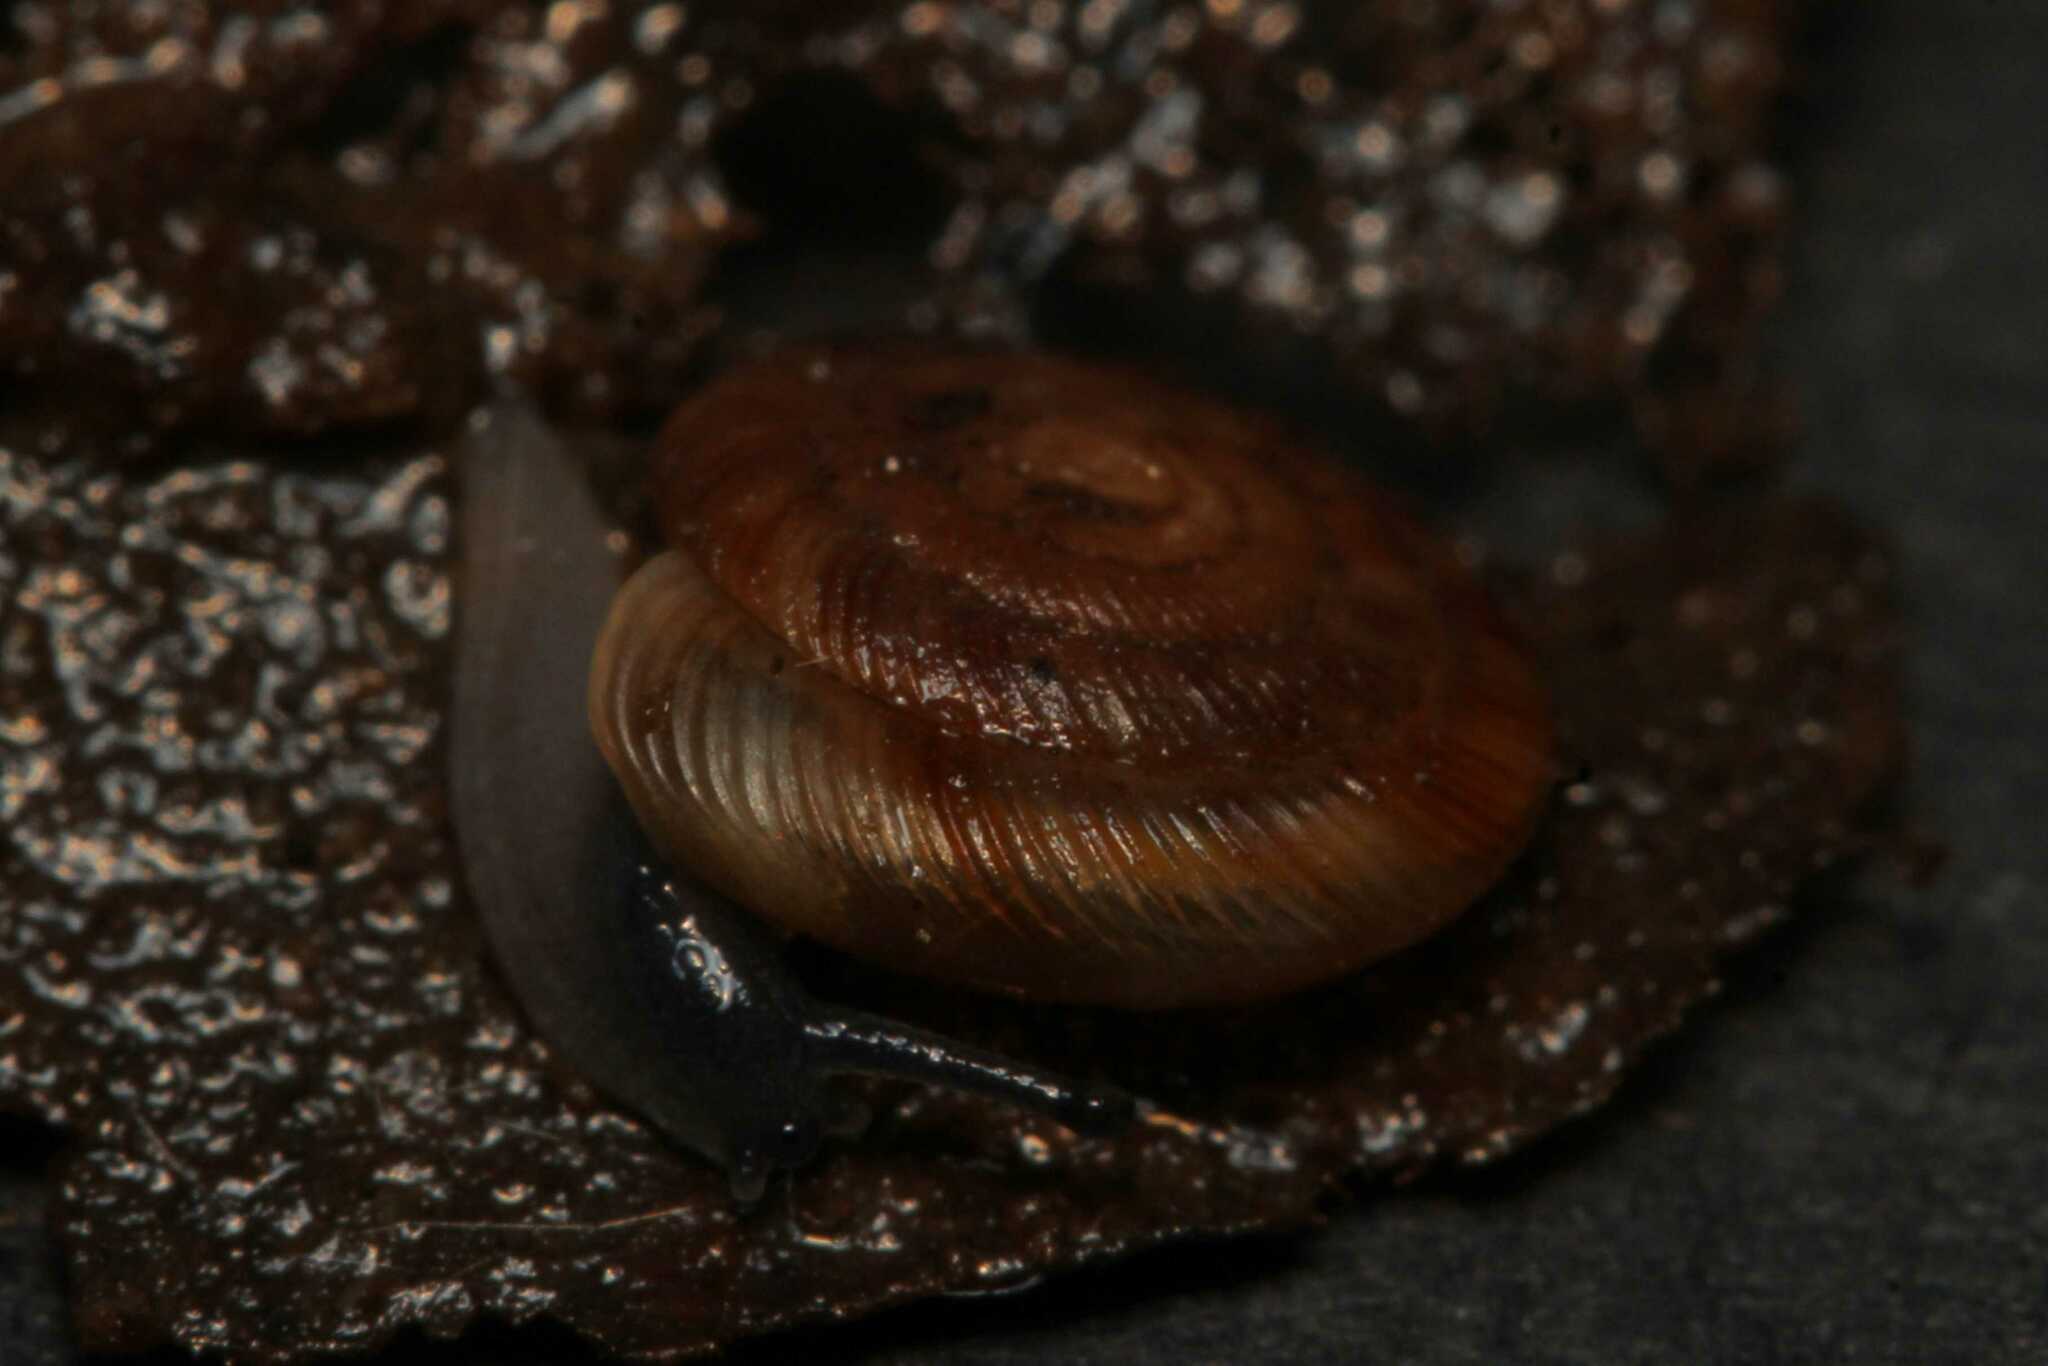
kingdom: Animalia
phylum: Mollusca
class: Gastropoda
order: Stylommatophora
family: Discidae
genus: Discus
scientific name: Discus rotundatus
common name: Rounded snail
